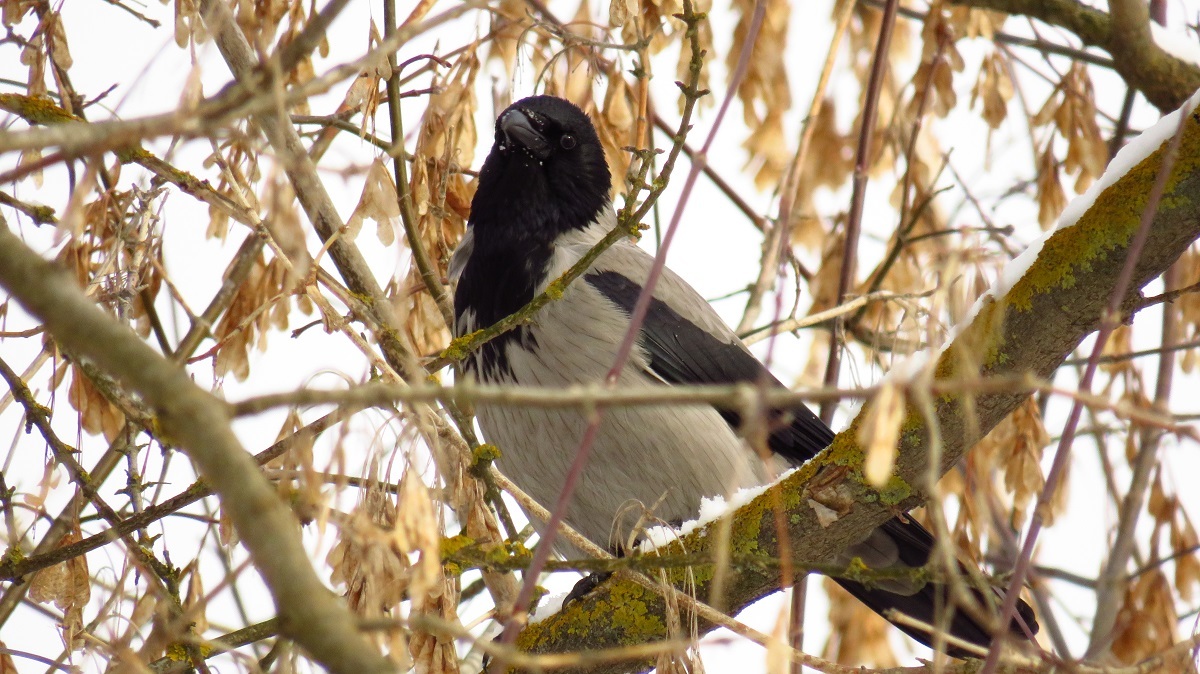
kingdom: Animalia
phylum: Chordata
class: Aves
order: Passeriformes
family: Corvidae
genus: Corvus
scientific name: Corvus cornix
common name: Hooded crow
